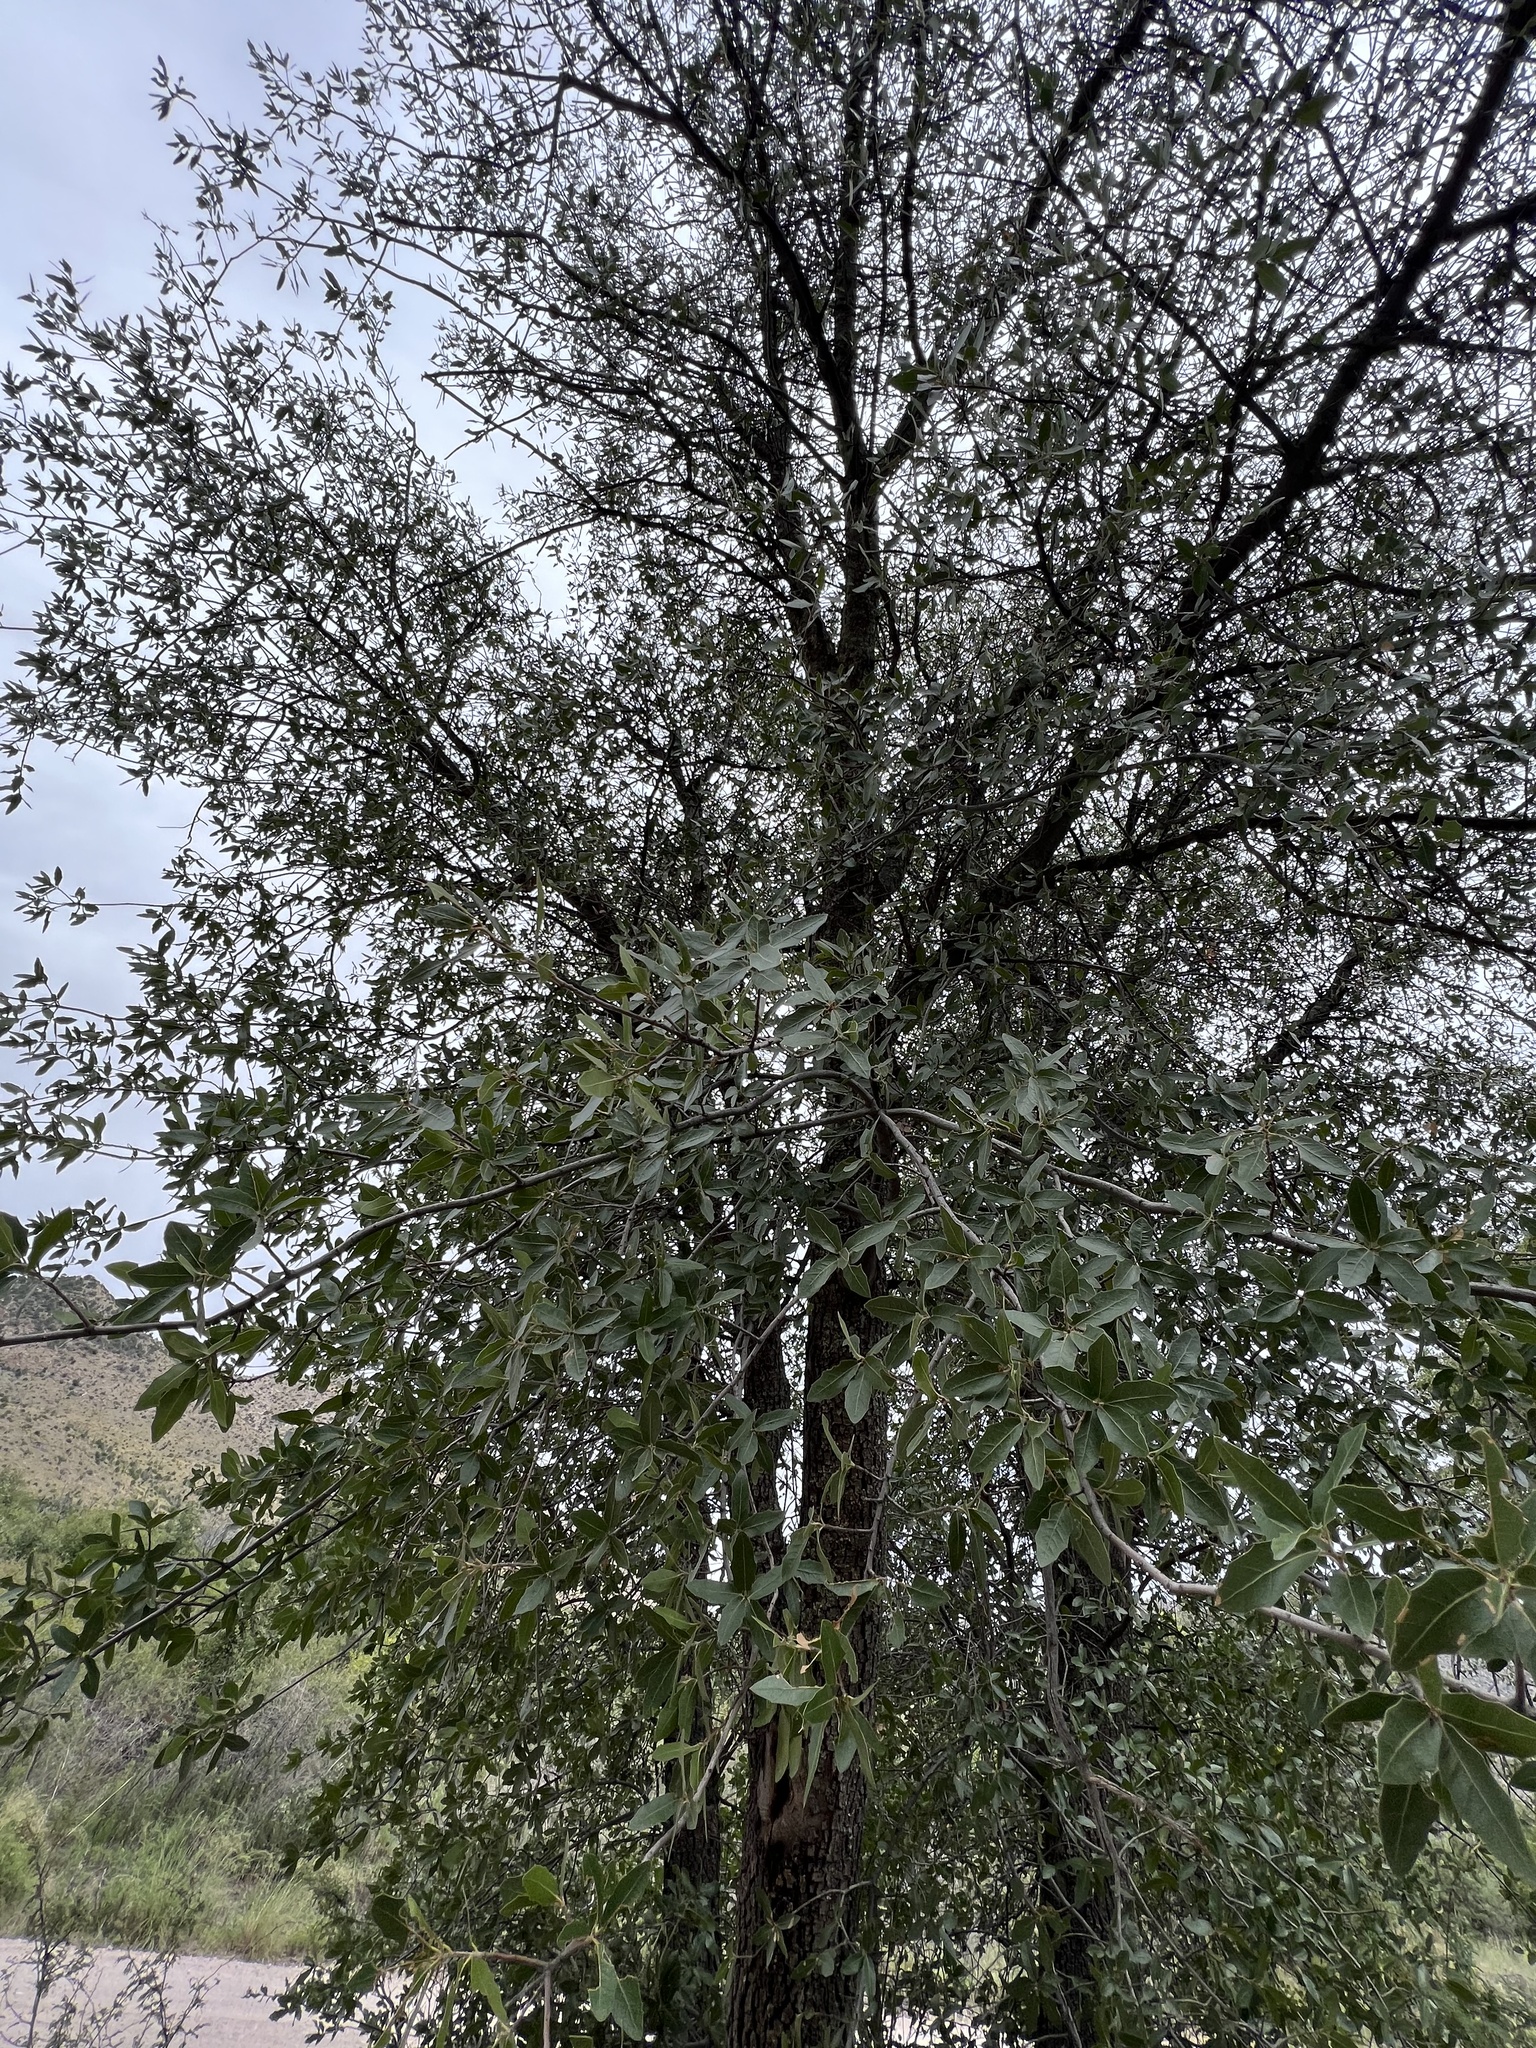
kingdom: Plantae
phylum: Tracheophyta
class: Magnoliopsida
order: Fagales
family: Fagaceae
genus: Quercus
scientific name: Quercus emoryi
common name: Emory oak
